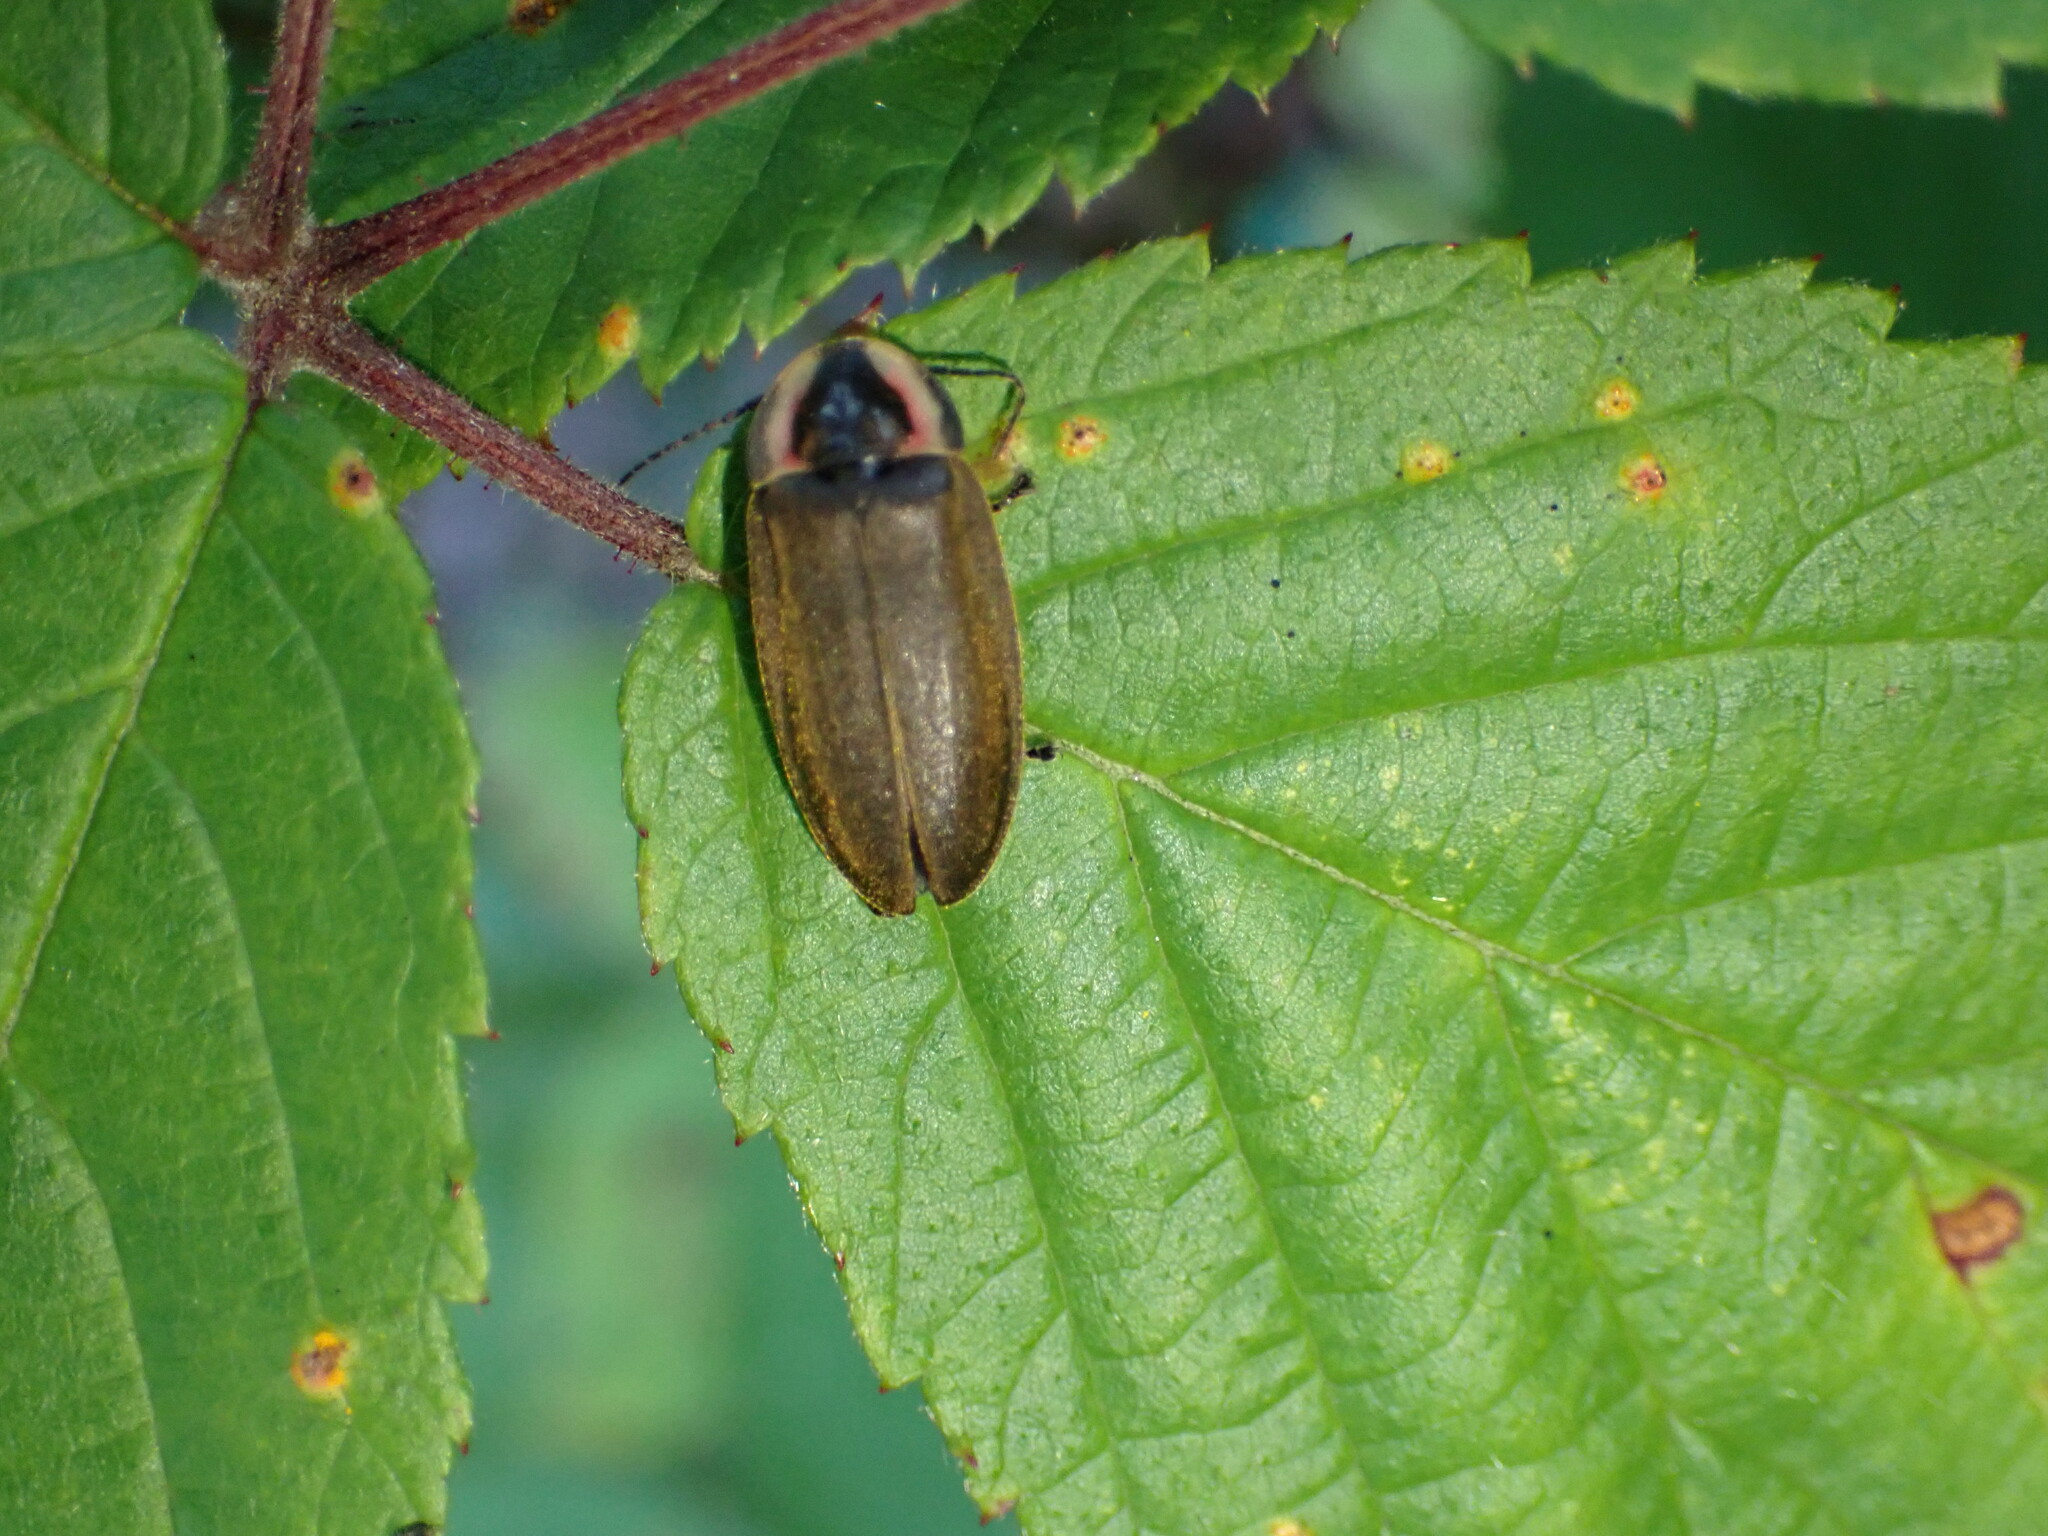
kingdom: Animalia
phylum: Arthropoda
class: Insecta
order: Coleoptera
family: Lampyridae
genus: Photinus
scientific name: Photinus corrusca
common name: Winter firefly
